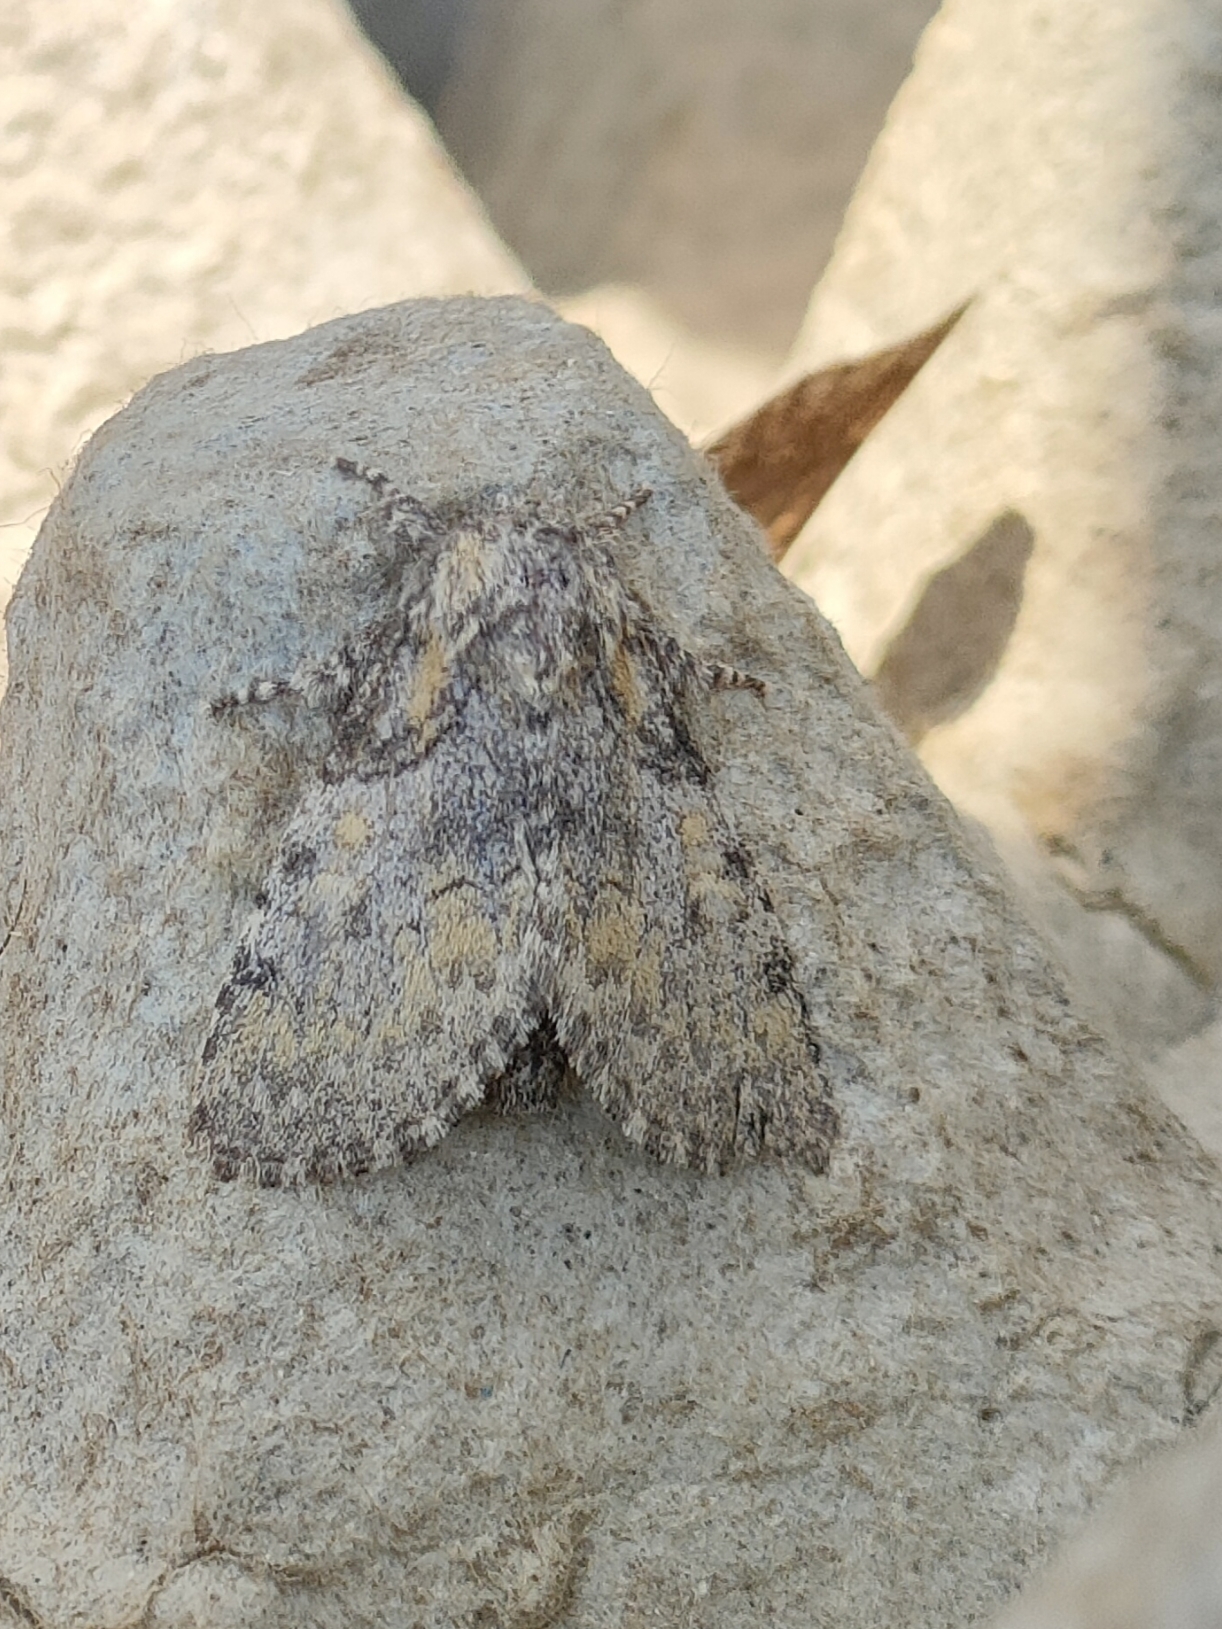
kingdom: Animalia
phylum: Arthropoda
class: Insecta
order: Lepidoptera
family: Noctuidae
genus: Raphia
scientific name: Raphia hybris
